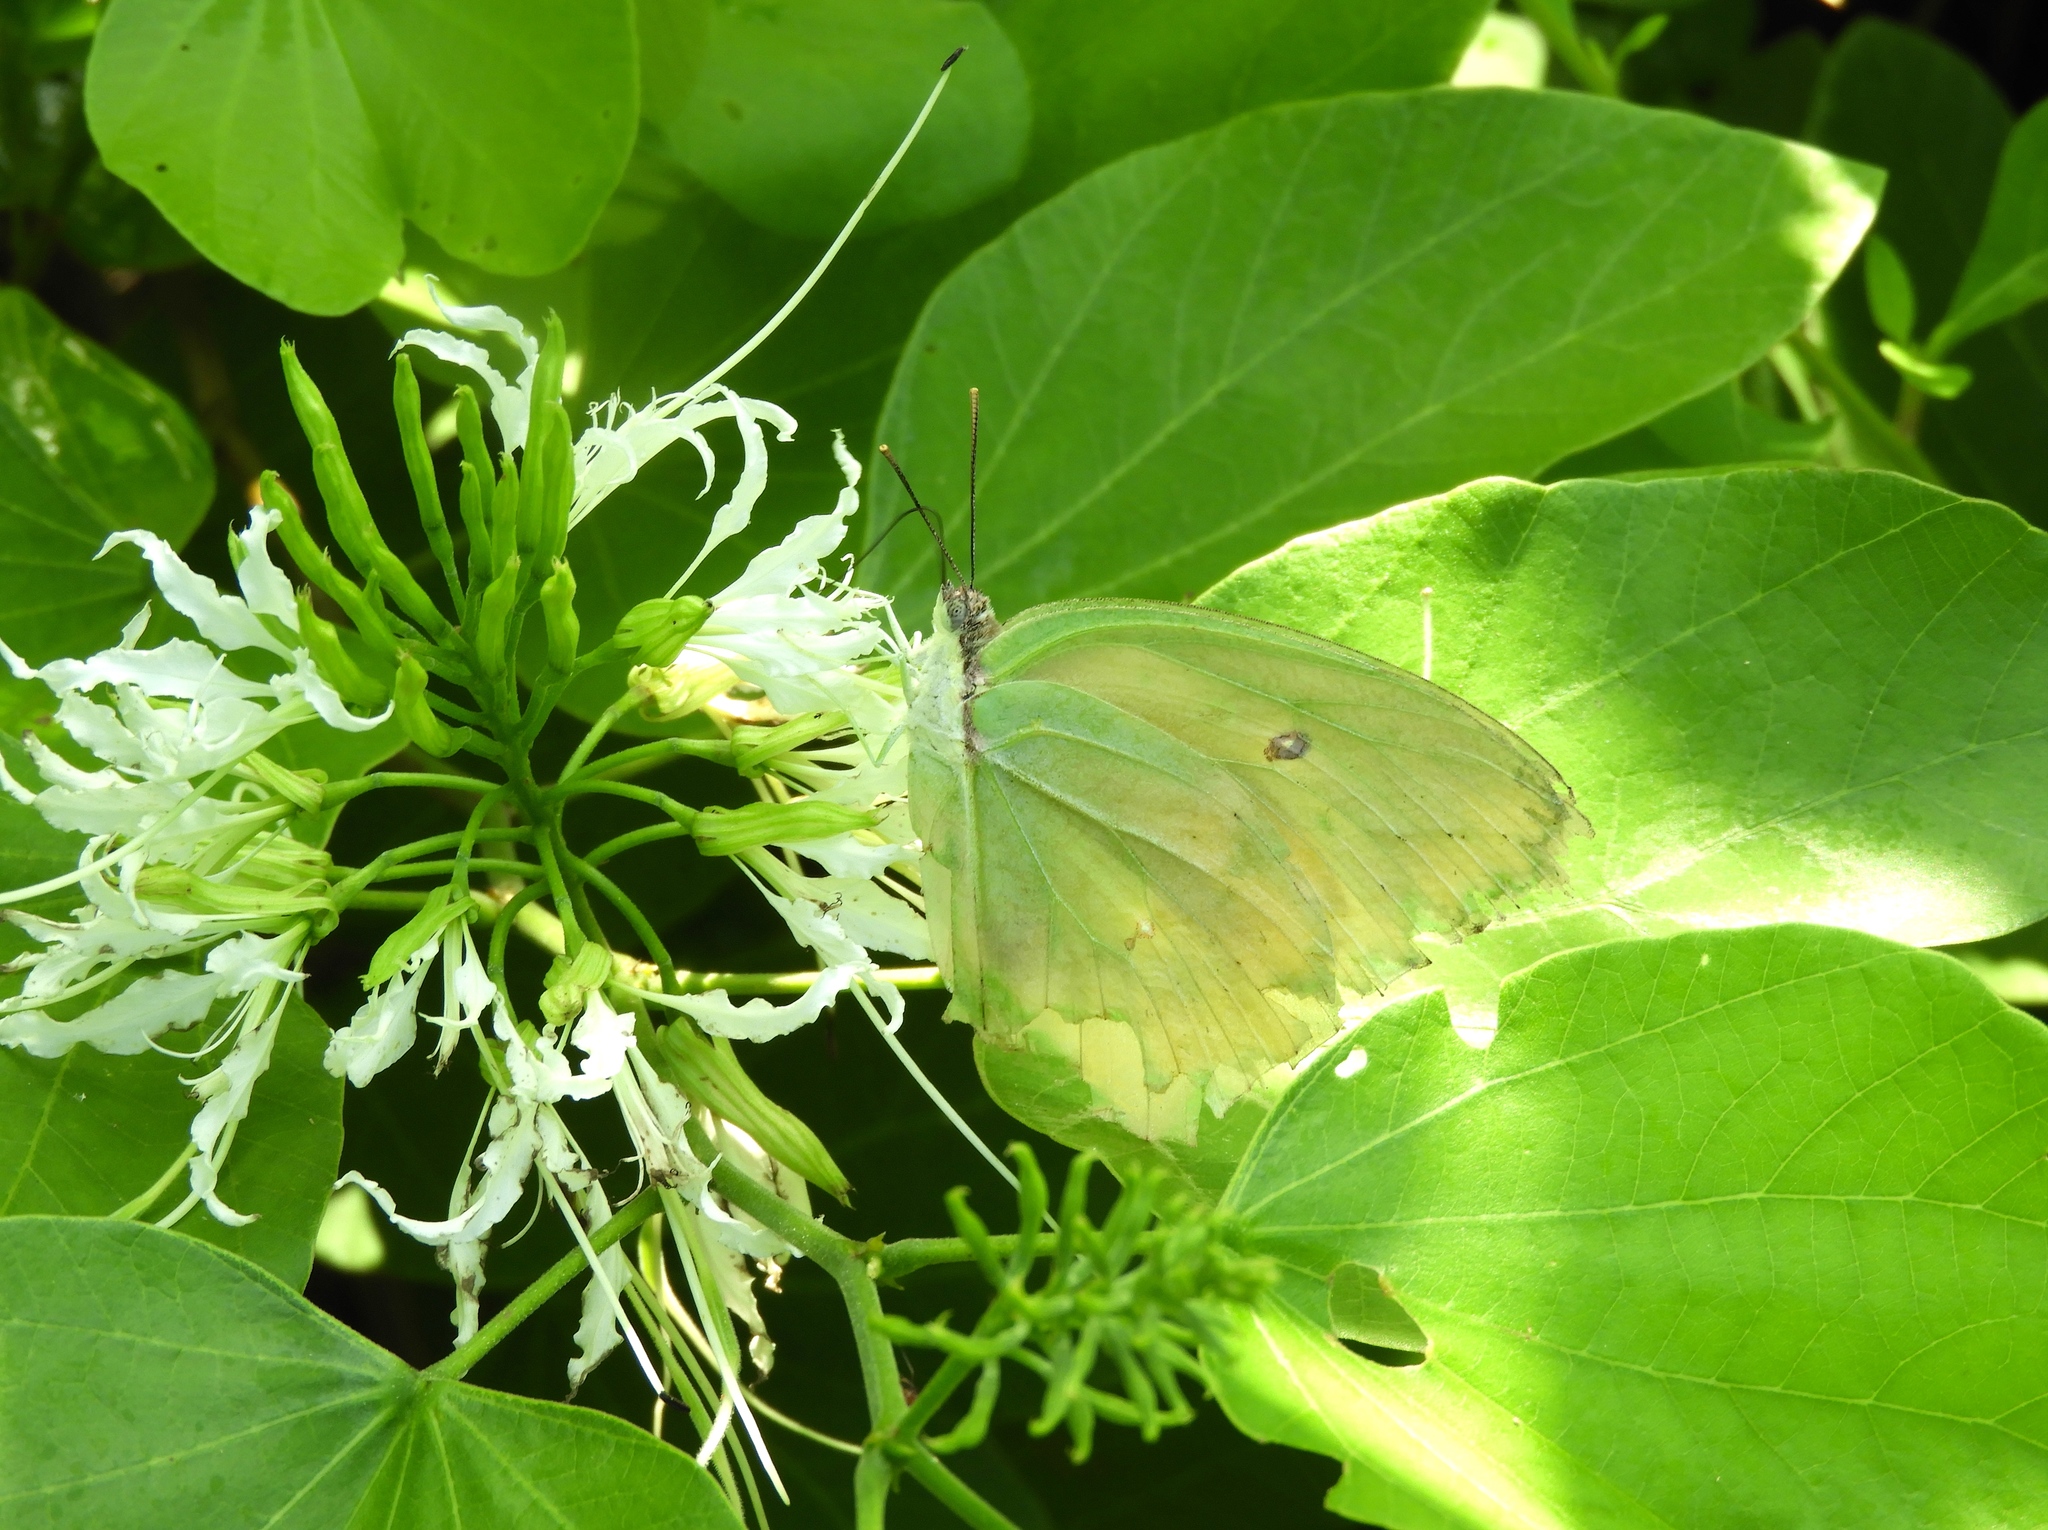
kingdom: Animalia
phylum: Arthropoda
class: Insecta
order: Lepidoptera
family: Pieridae
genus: Anteos
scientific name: Anteos
